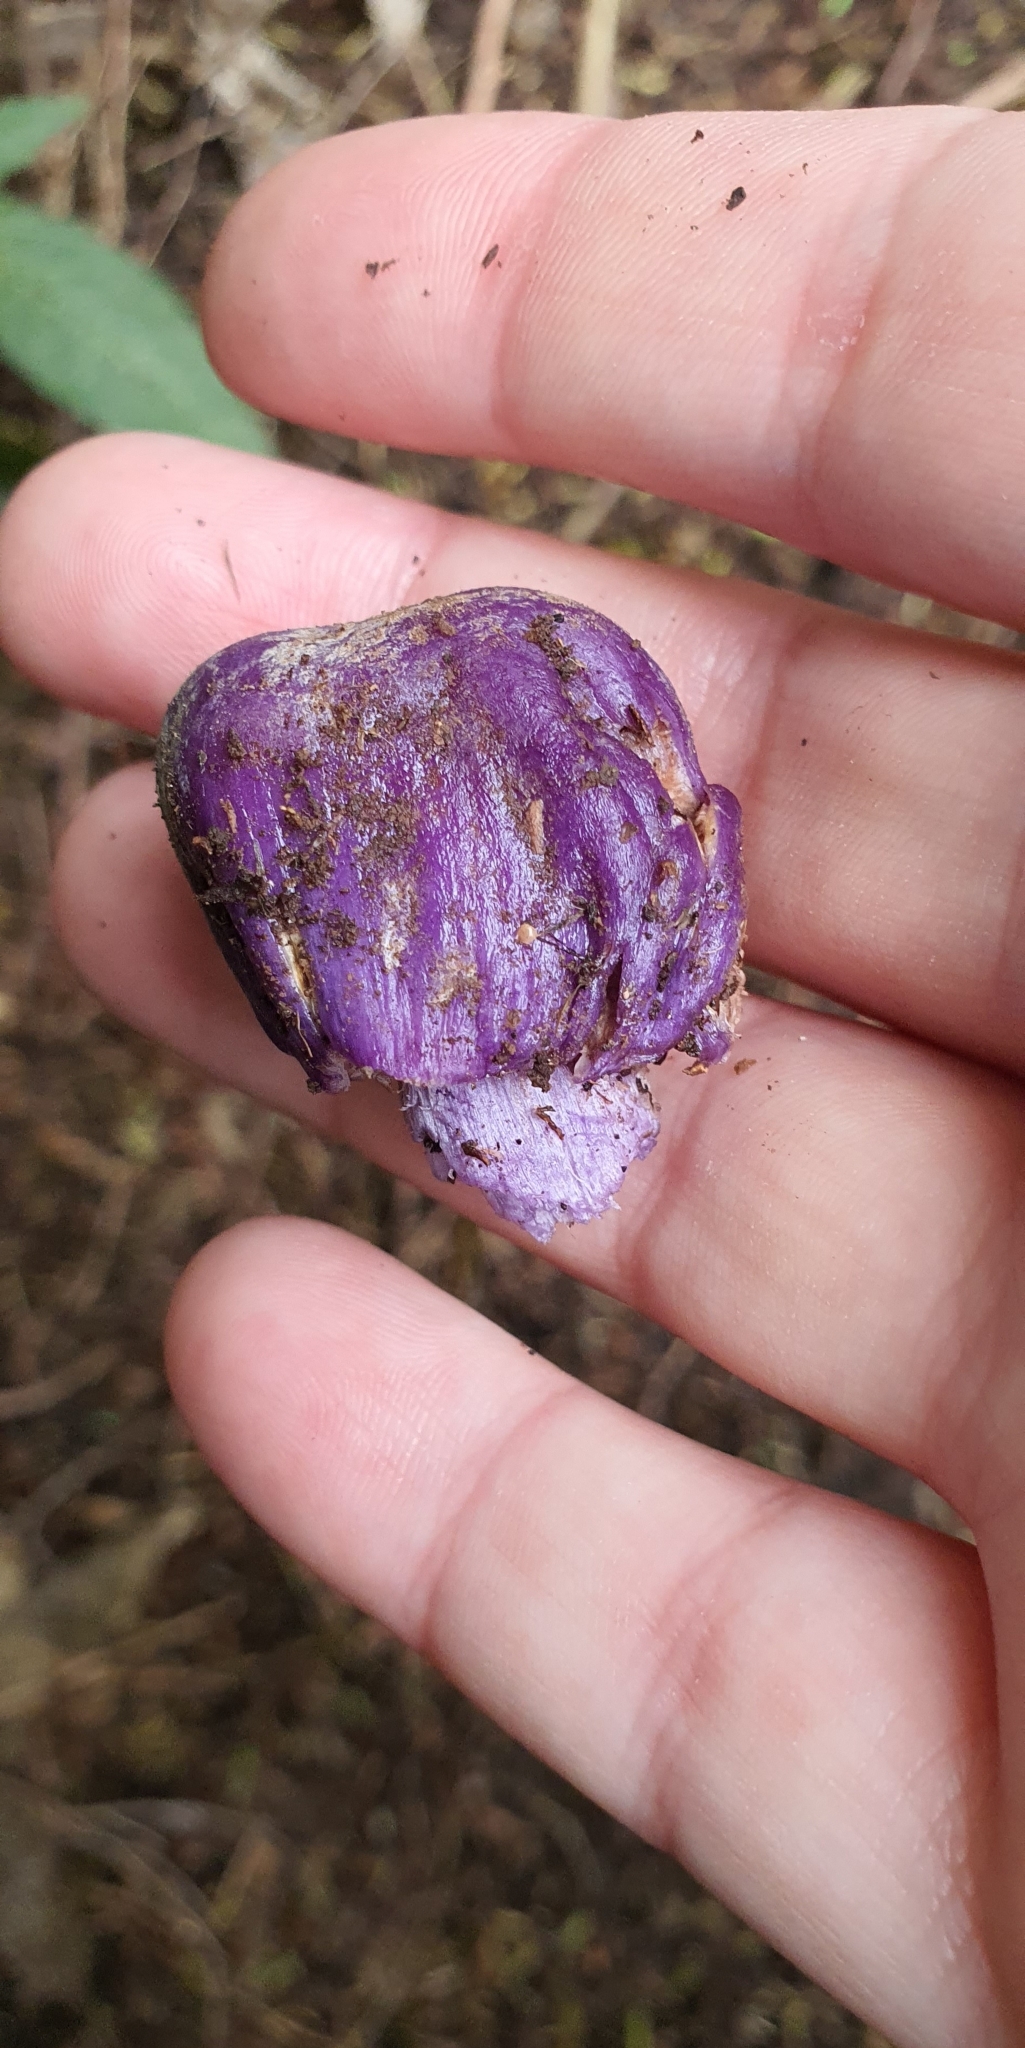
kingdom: Fungi
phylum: Basidiomycota
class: Agaricomycetes
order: Agaricales
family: Cortinariaceae
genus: Cortinarius
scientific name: Cortinarius coneae
